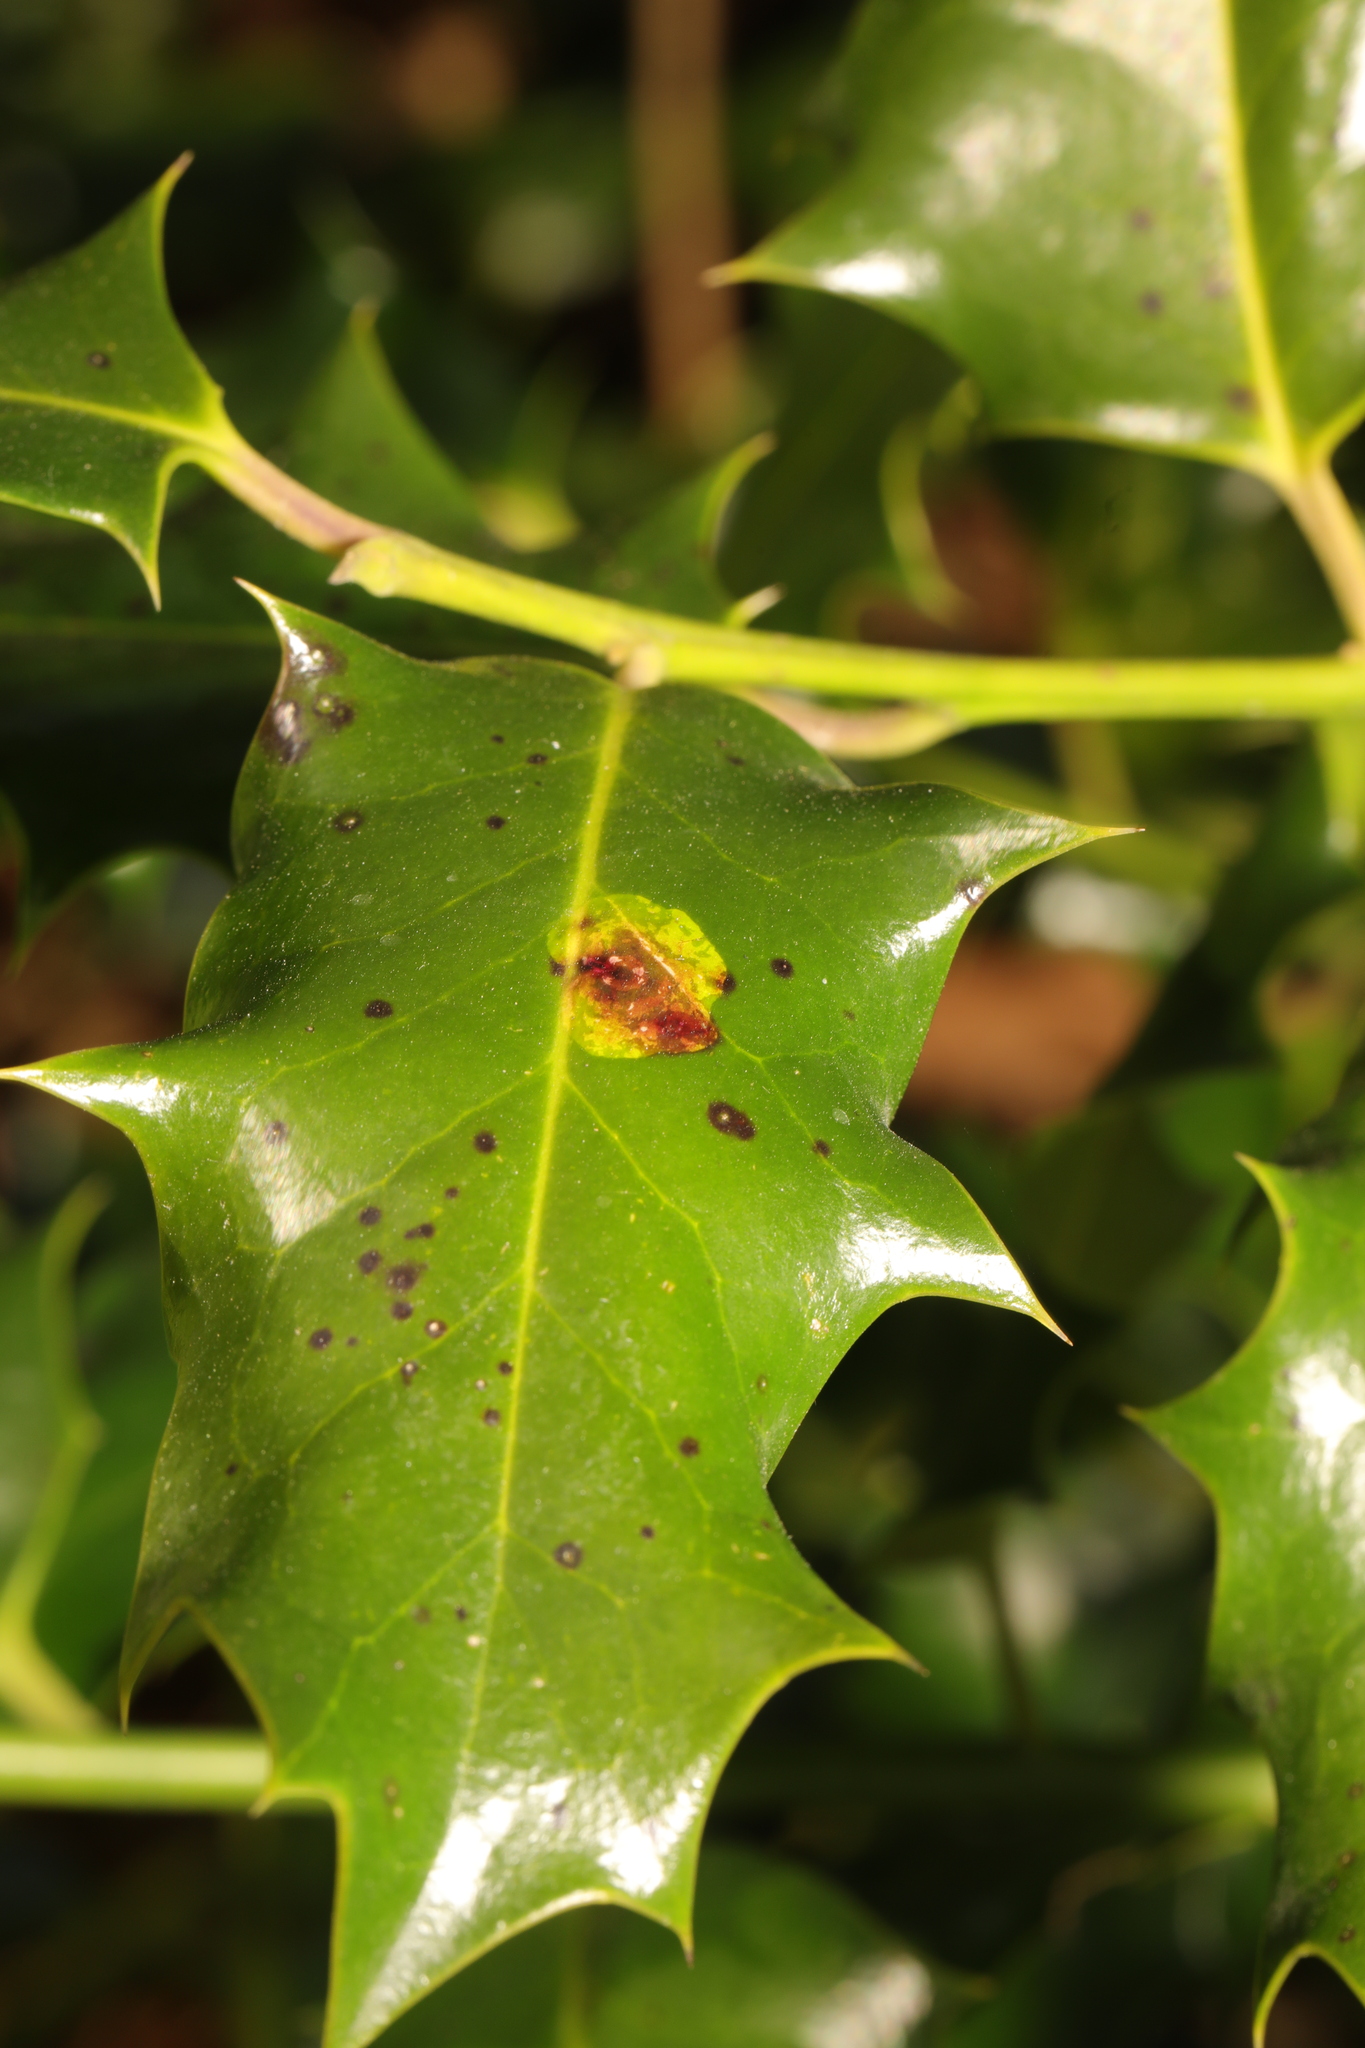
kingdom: Animalia
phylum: Arthropoda
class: Insecta
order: Diptera
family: Agromyzidae
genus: Phytomyza
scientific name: Phytomyza ilicis
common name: Holly leafminer
